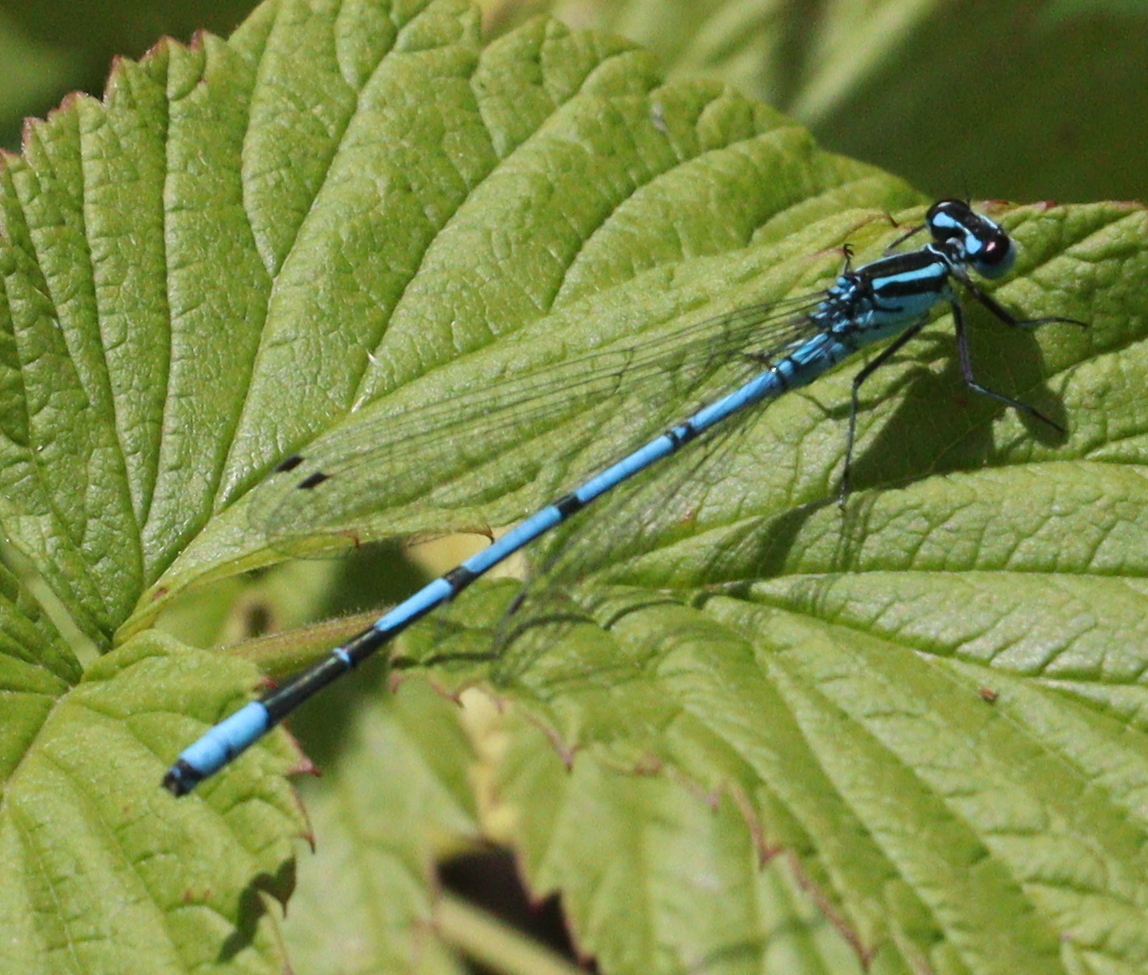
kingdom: Animalia
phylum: Arthropoda
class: Insecta
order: Odonata
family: Coenagrionidae
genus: Coenagrion
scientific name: Coenagrion puella
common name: Azure damselfly
